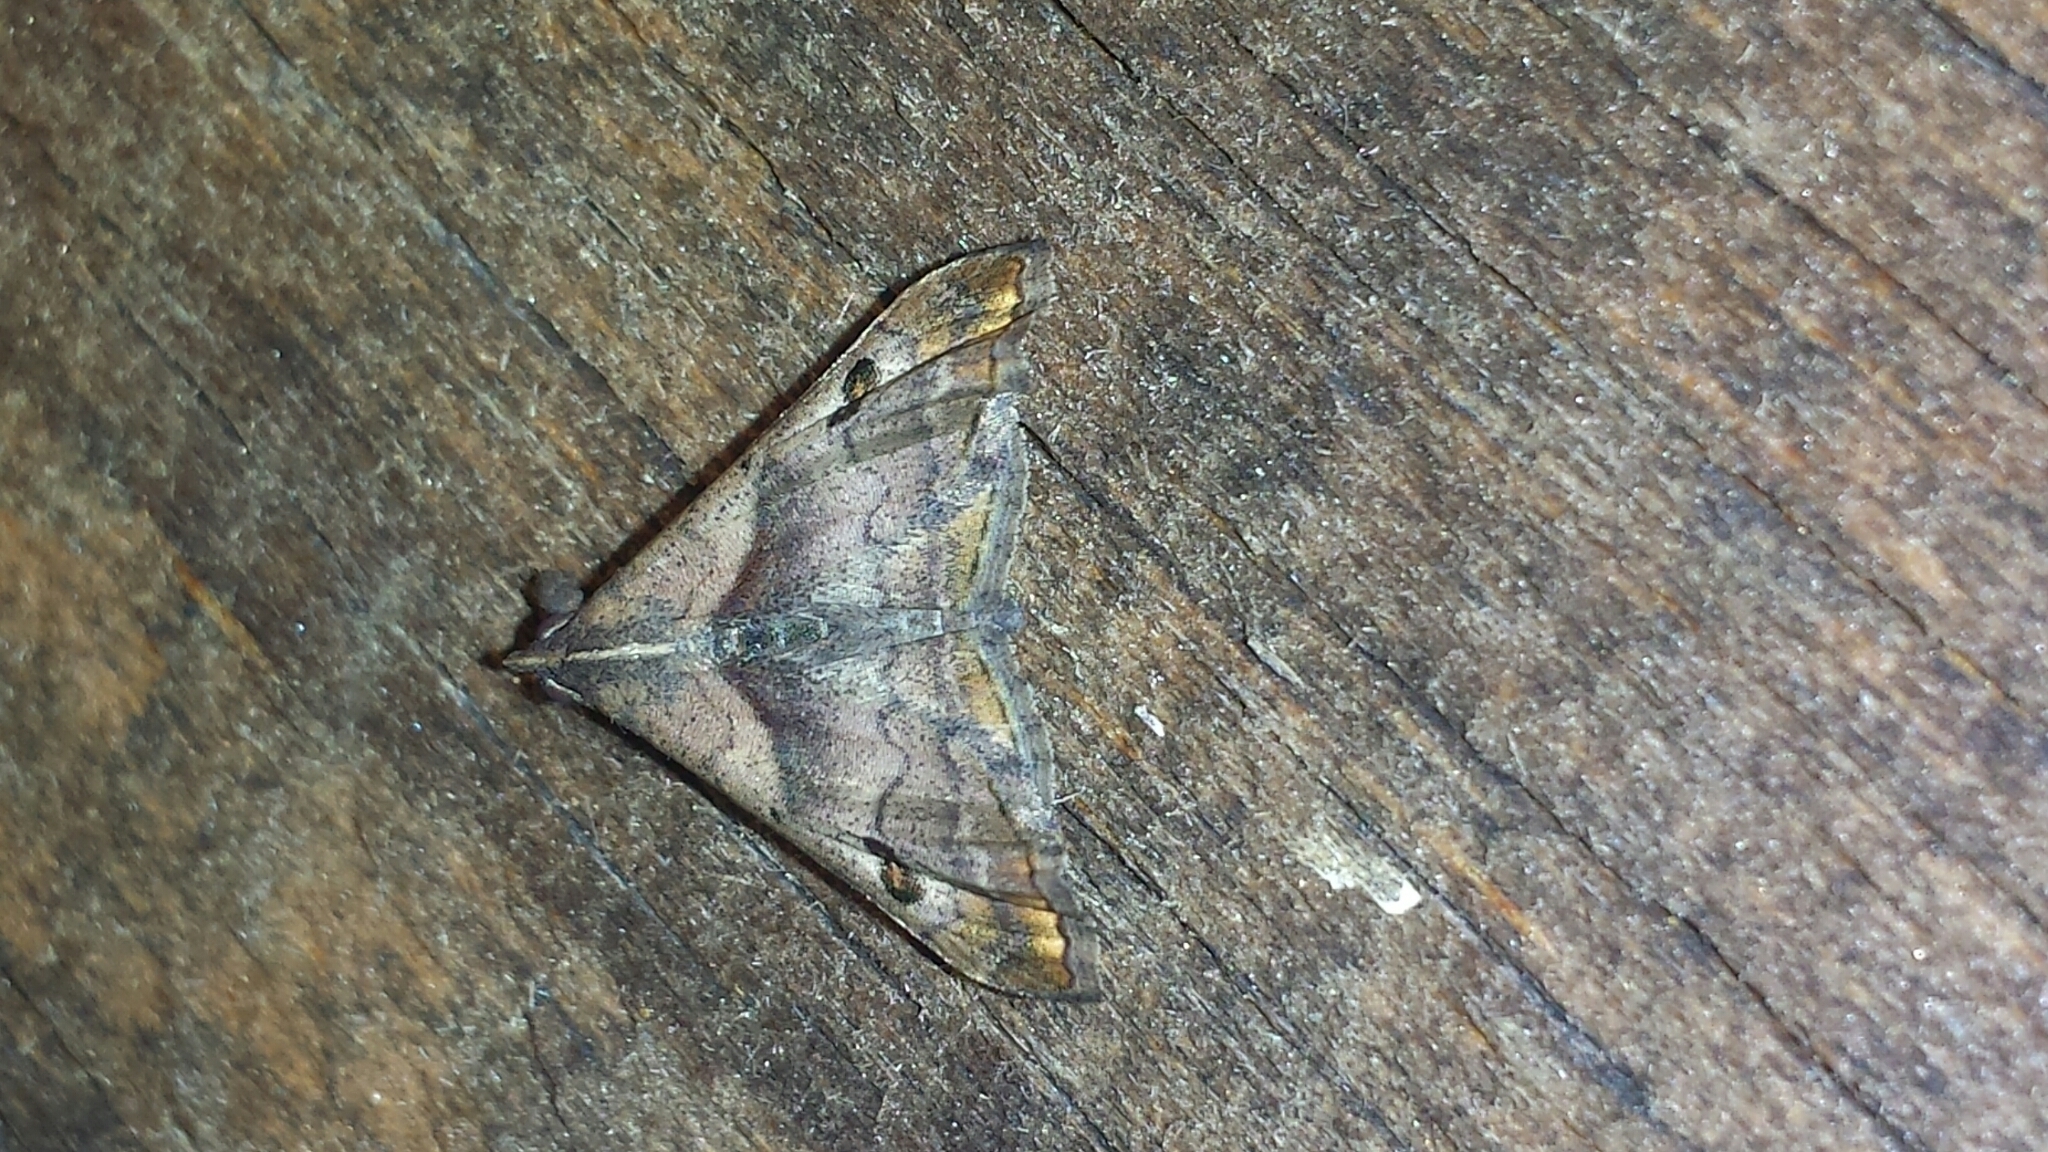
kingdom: Animalia
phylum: Arthropoda
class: Insecta
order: Lepidoptera
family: Erebidae
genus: Palthis
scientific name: Palthis angulalis
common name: Dark-spotted palthis moth
